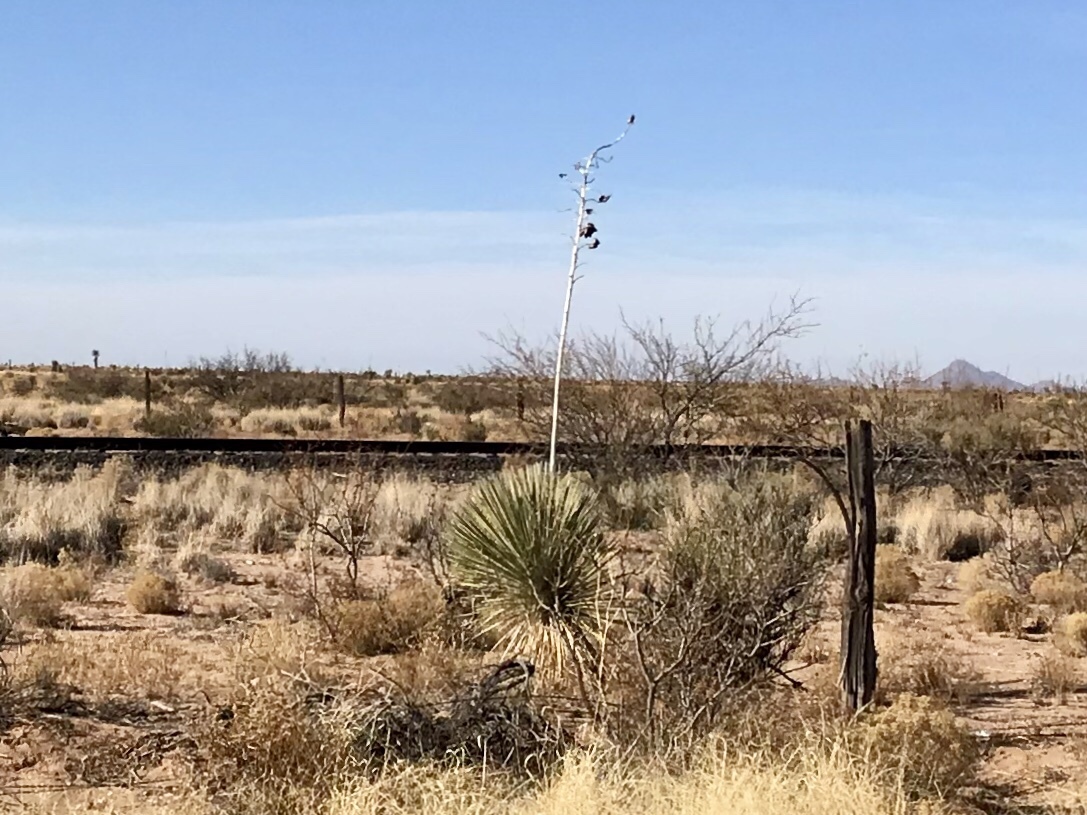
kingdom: Plantae
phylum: Tracheophyta
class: Liliopsida
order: Asparagales
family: Asparagaceae
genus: Yucca
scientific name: Yucca elata
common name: Palmella
